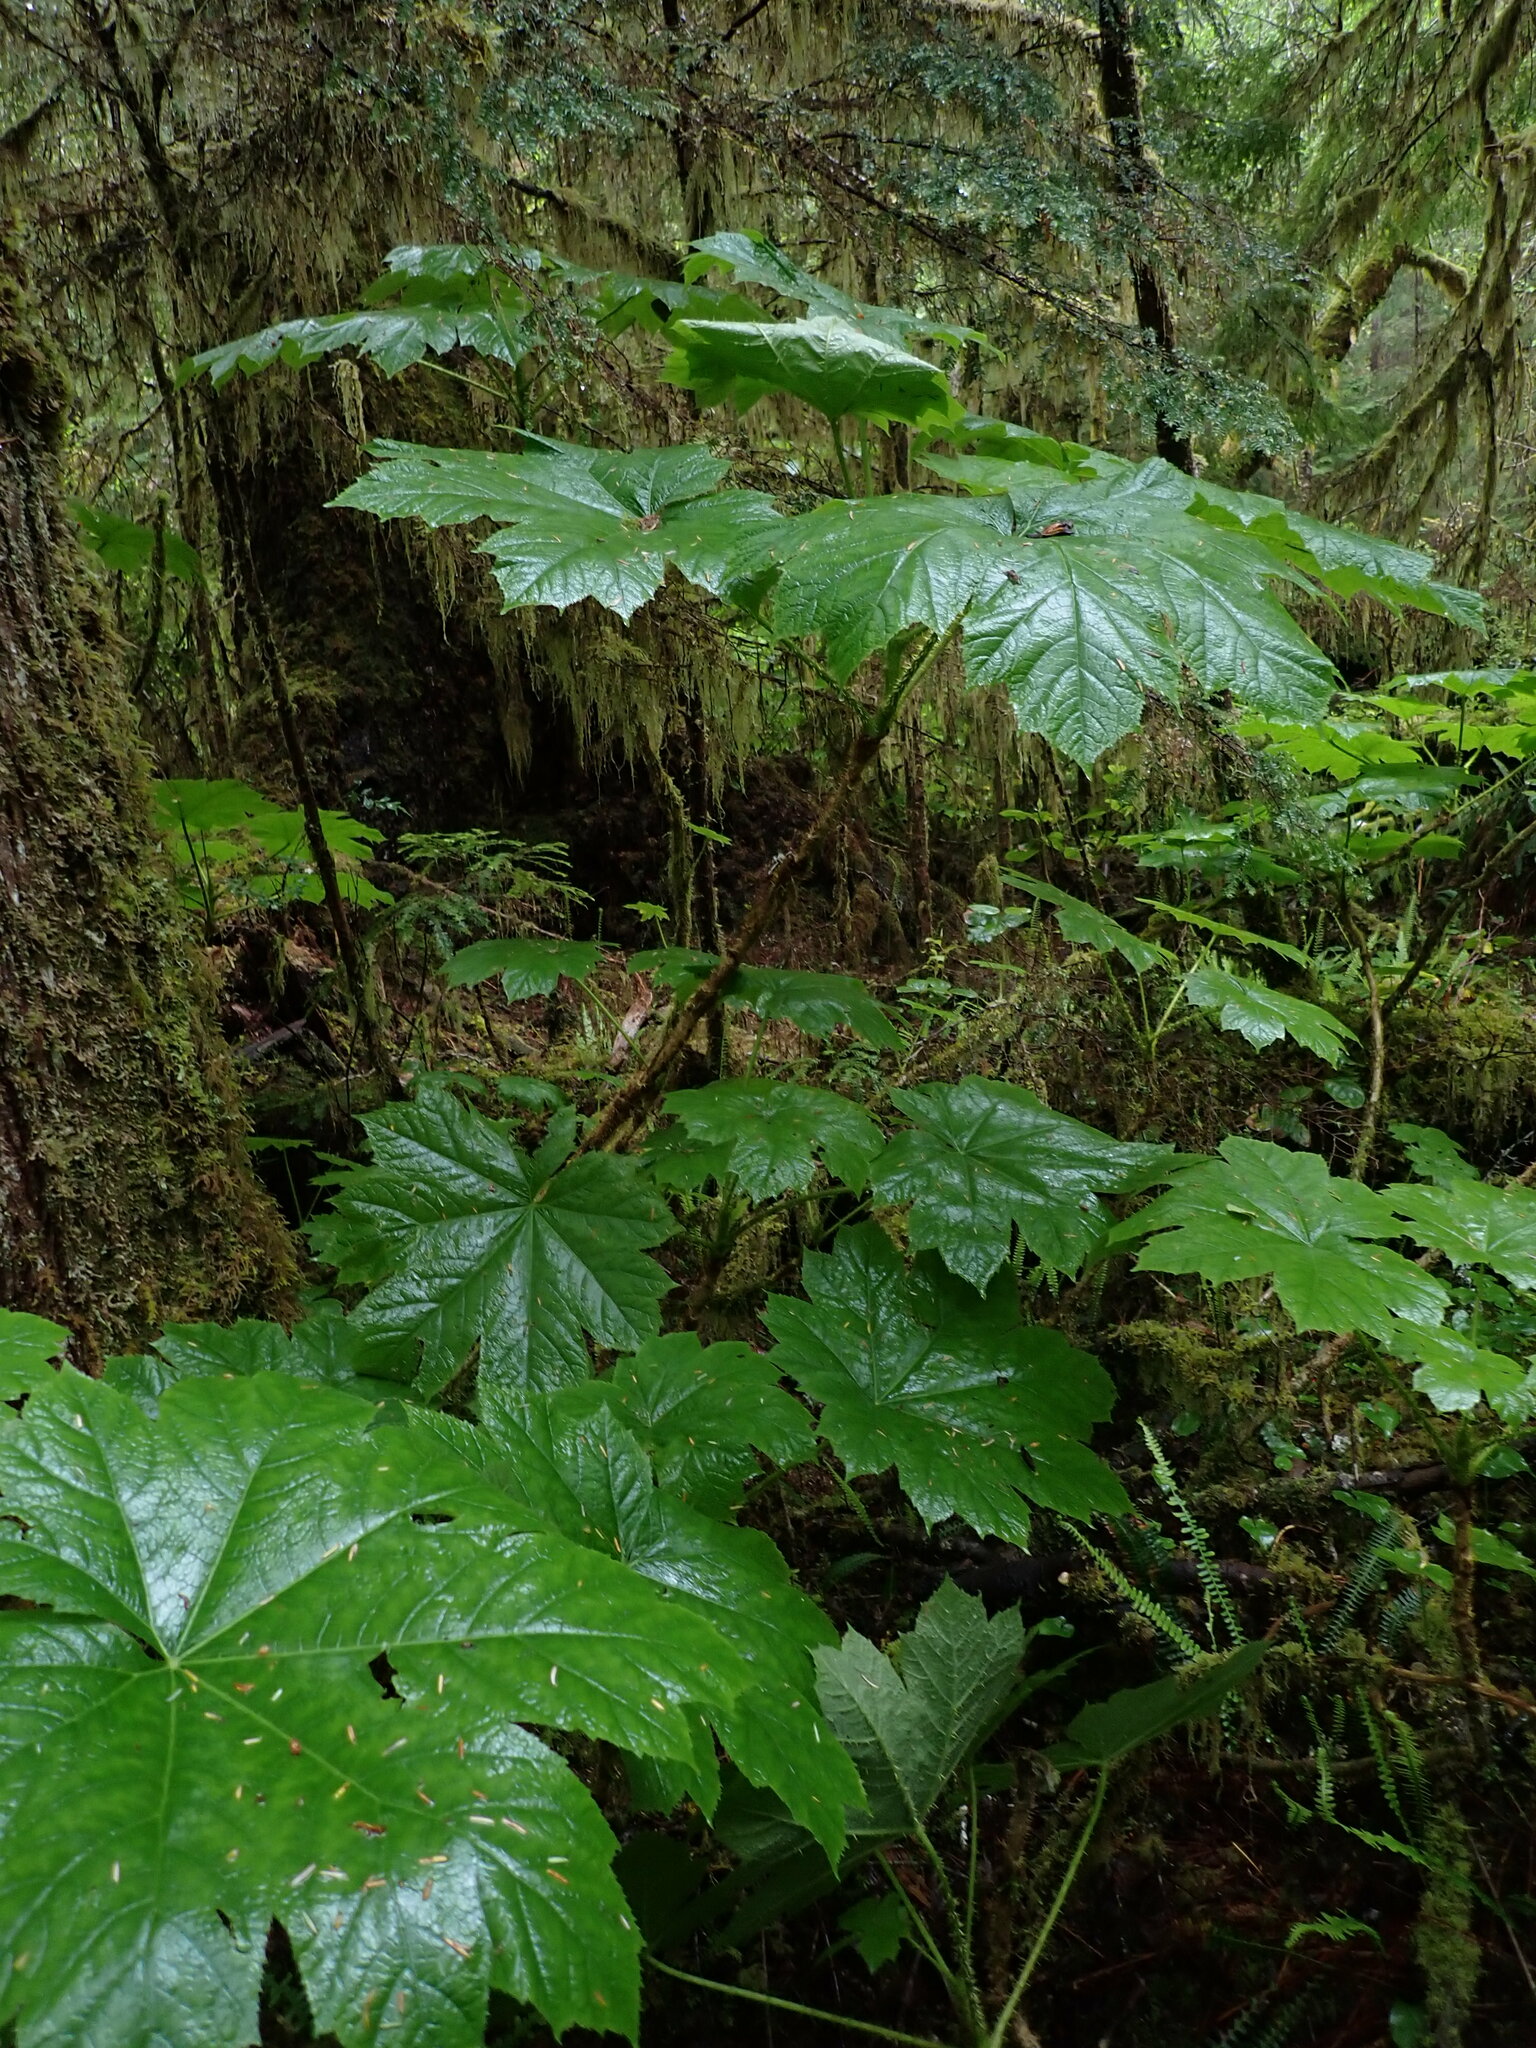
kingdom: Plantae
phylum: Tracheophyta
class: Magnoliopsida
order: Apiales
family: Araliaceae
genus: Oplopanax
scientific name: Oplopanax horridus
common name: Devil's walking-stick
